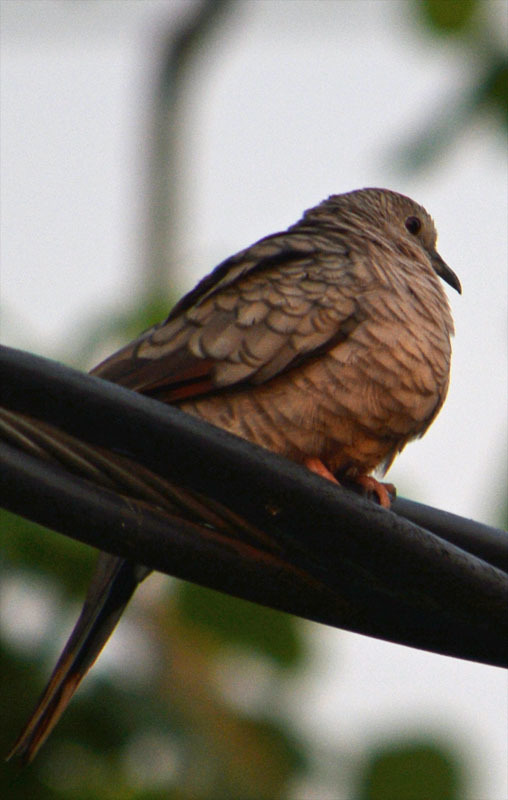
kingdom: Animalia
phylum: Chordata
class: Aves
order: Columbiformes
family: Columbidae
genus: Columbina
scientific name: Columbina inca
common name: Inca dove
